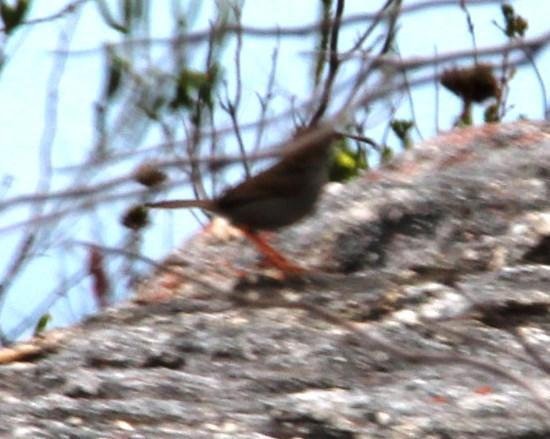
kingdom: Animalia
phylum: Chordata
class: Aves
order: Passeriformes
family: Cisticolidae
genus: Cisticola
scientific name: Cisticola fulvicapilla
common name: Neddicky
